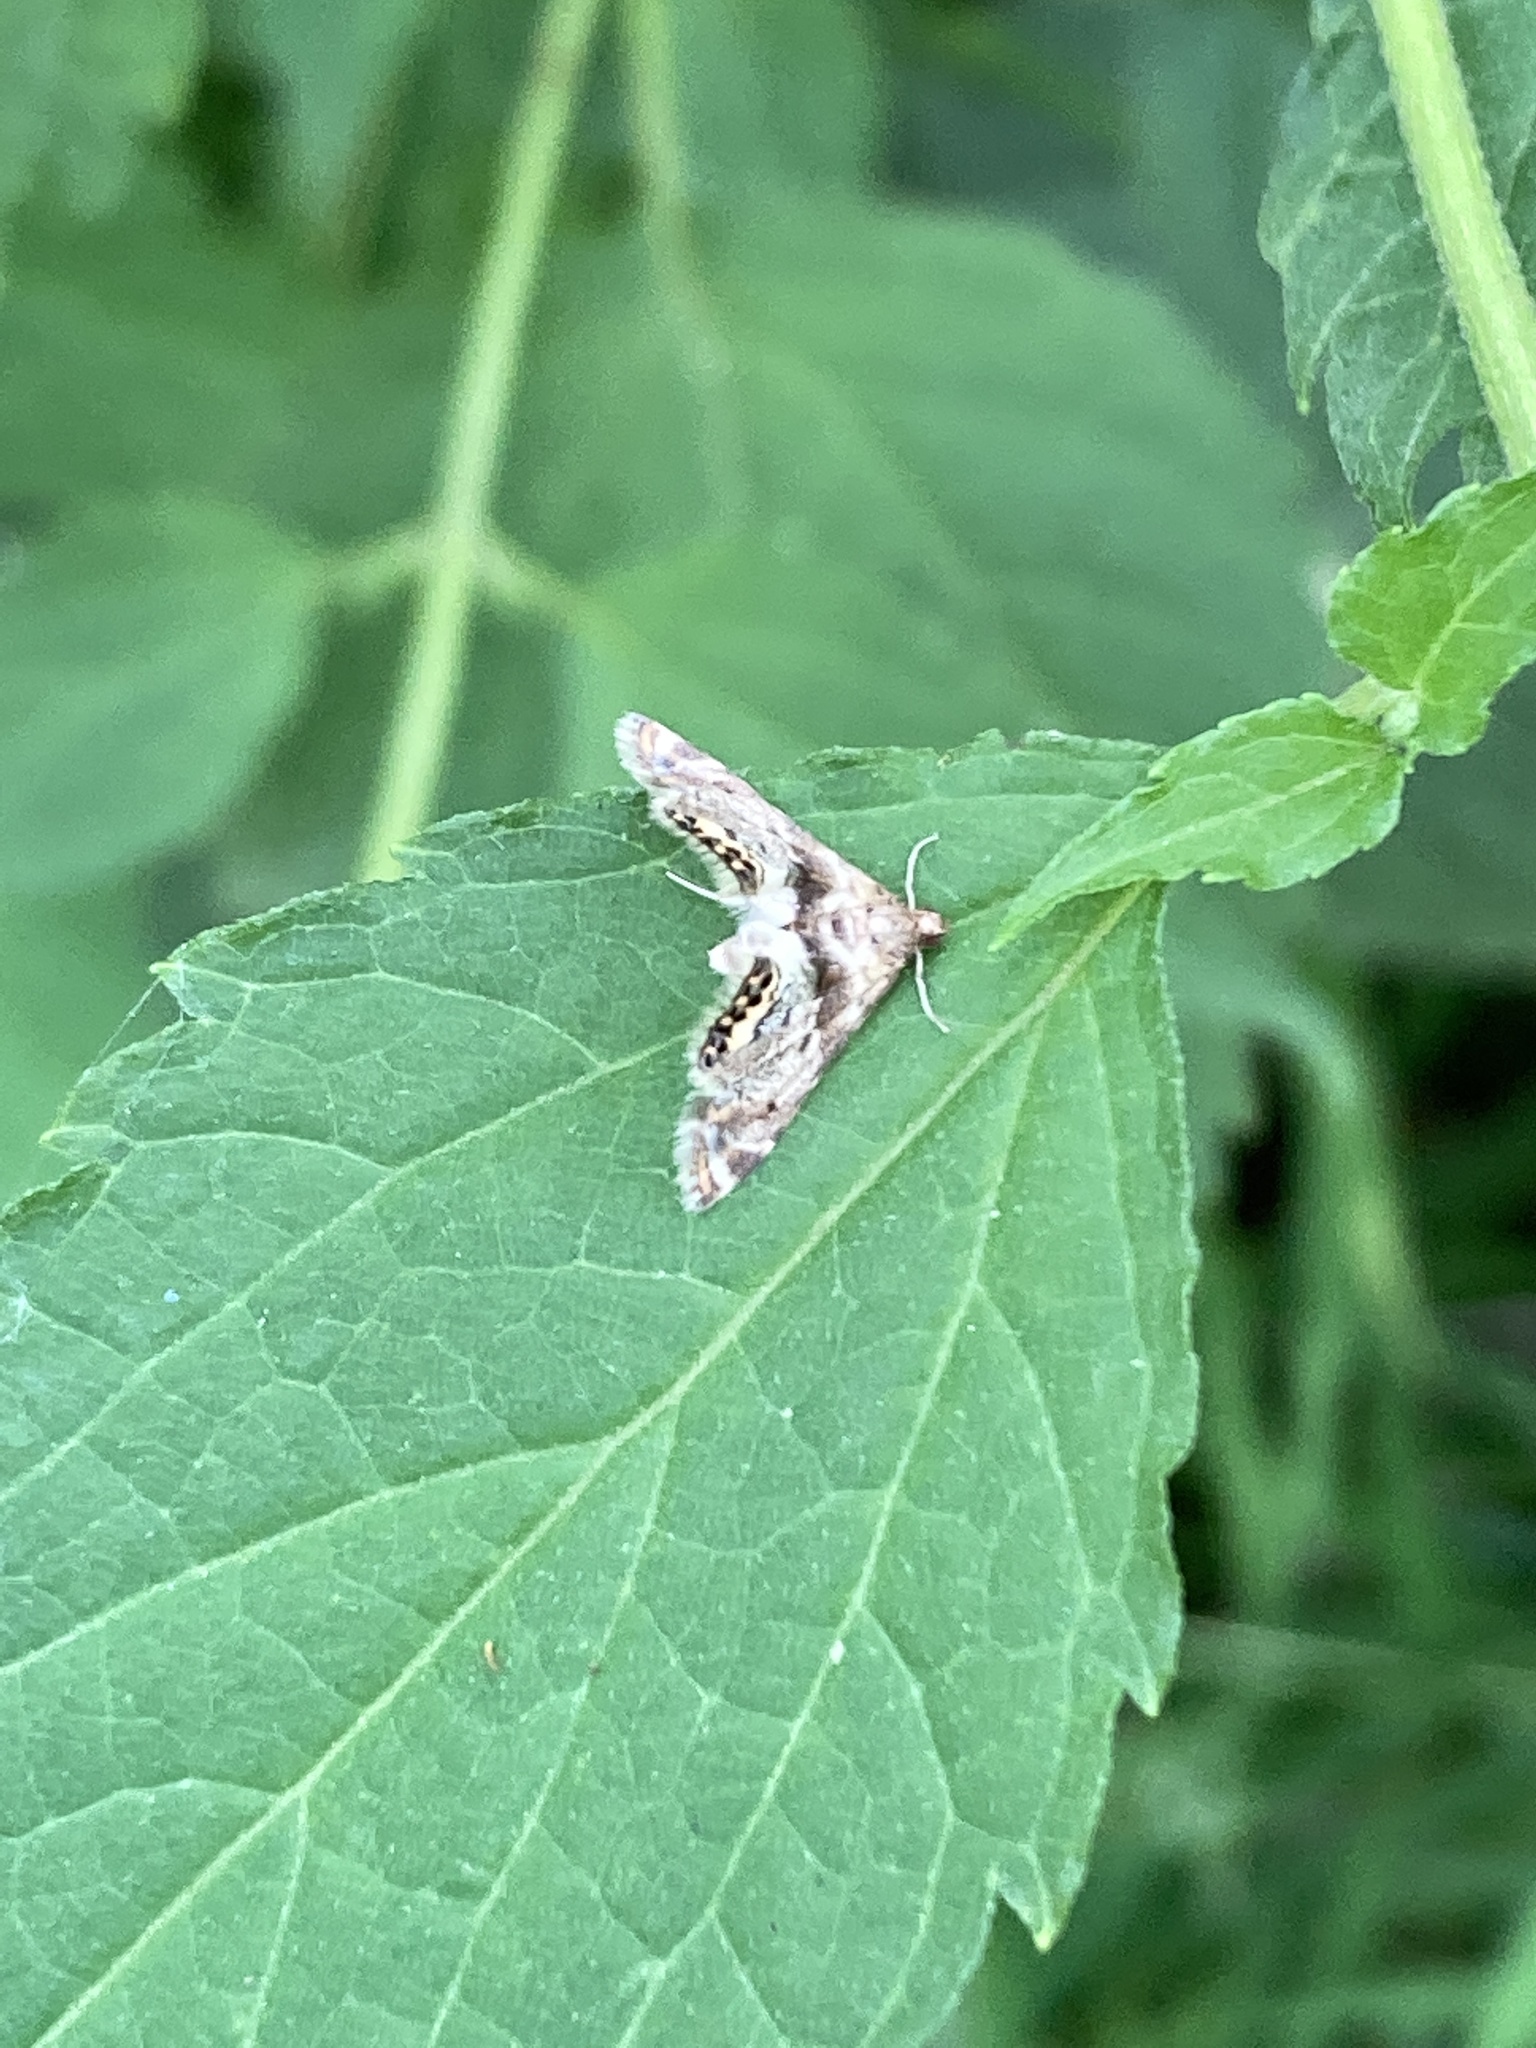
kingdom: Animalia
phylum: Arthropoda
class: Insecta
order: Lepidoptera
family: Crambidae
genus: Petrophila
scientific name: Petrophila fulicalis
